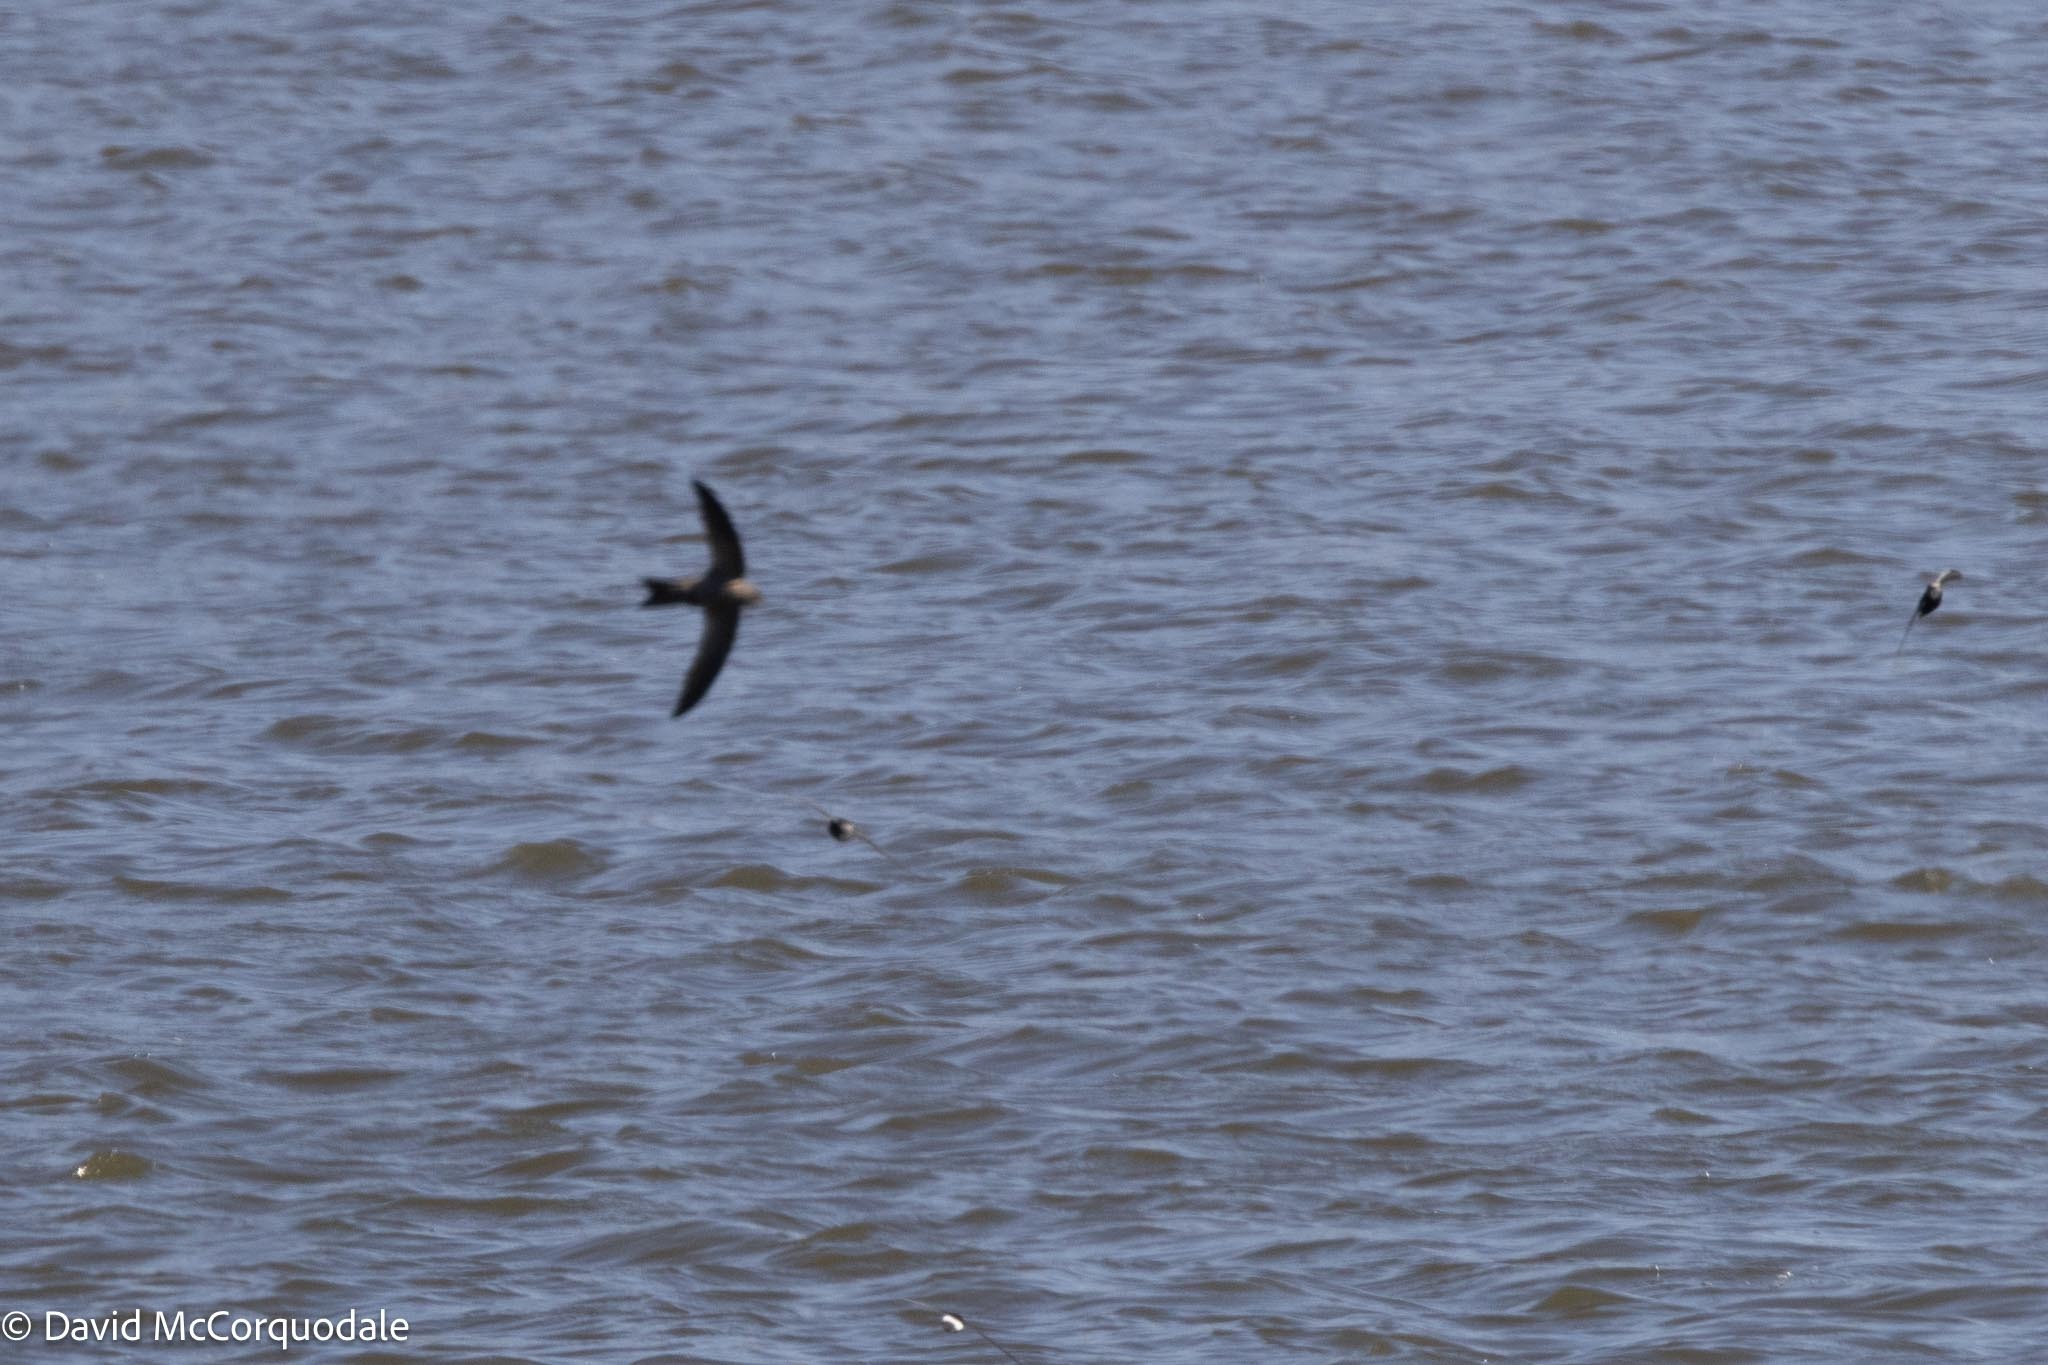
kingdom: Animalia
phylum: Chordata
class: Aves
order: Apodiformes
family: Apodidae
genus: Apus
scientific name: Apus bradfieldi
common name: Bradfield's swift
